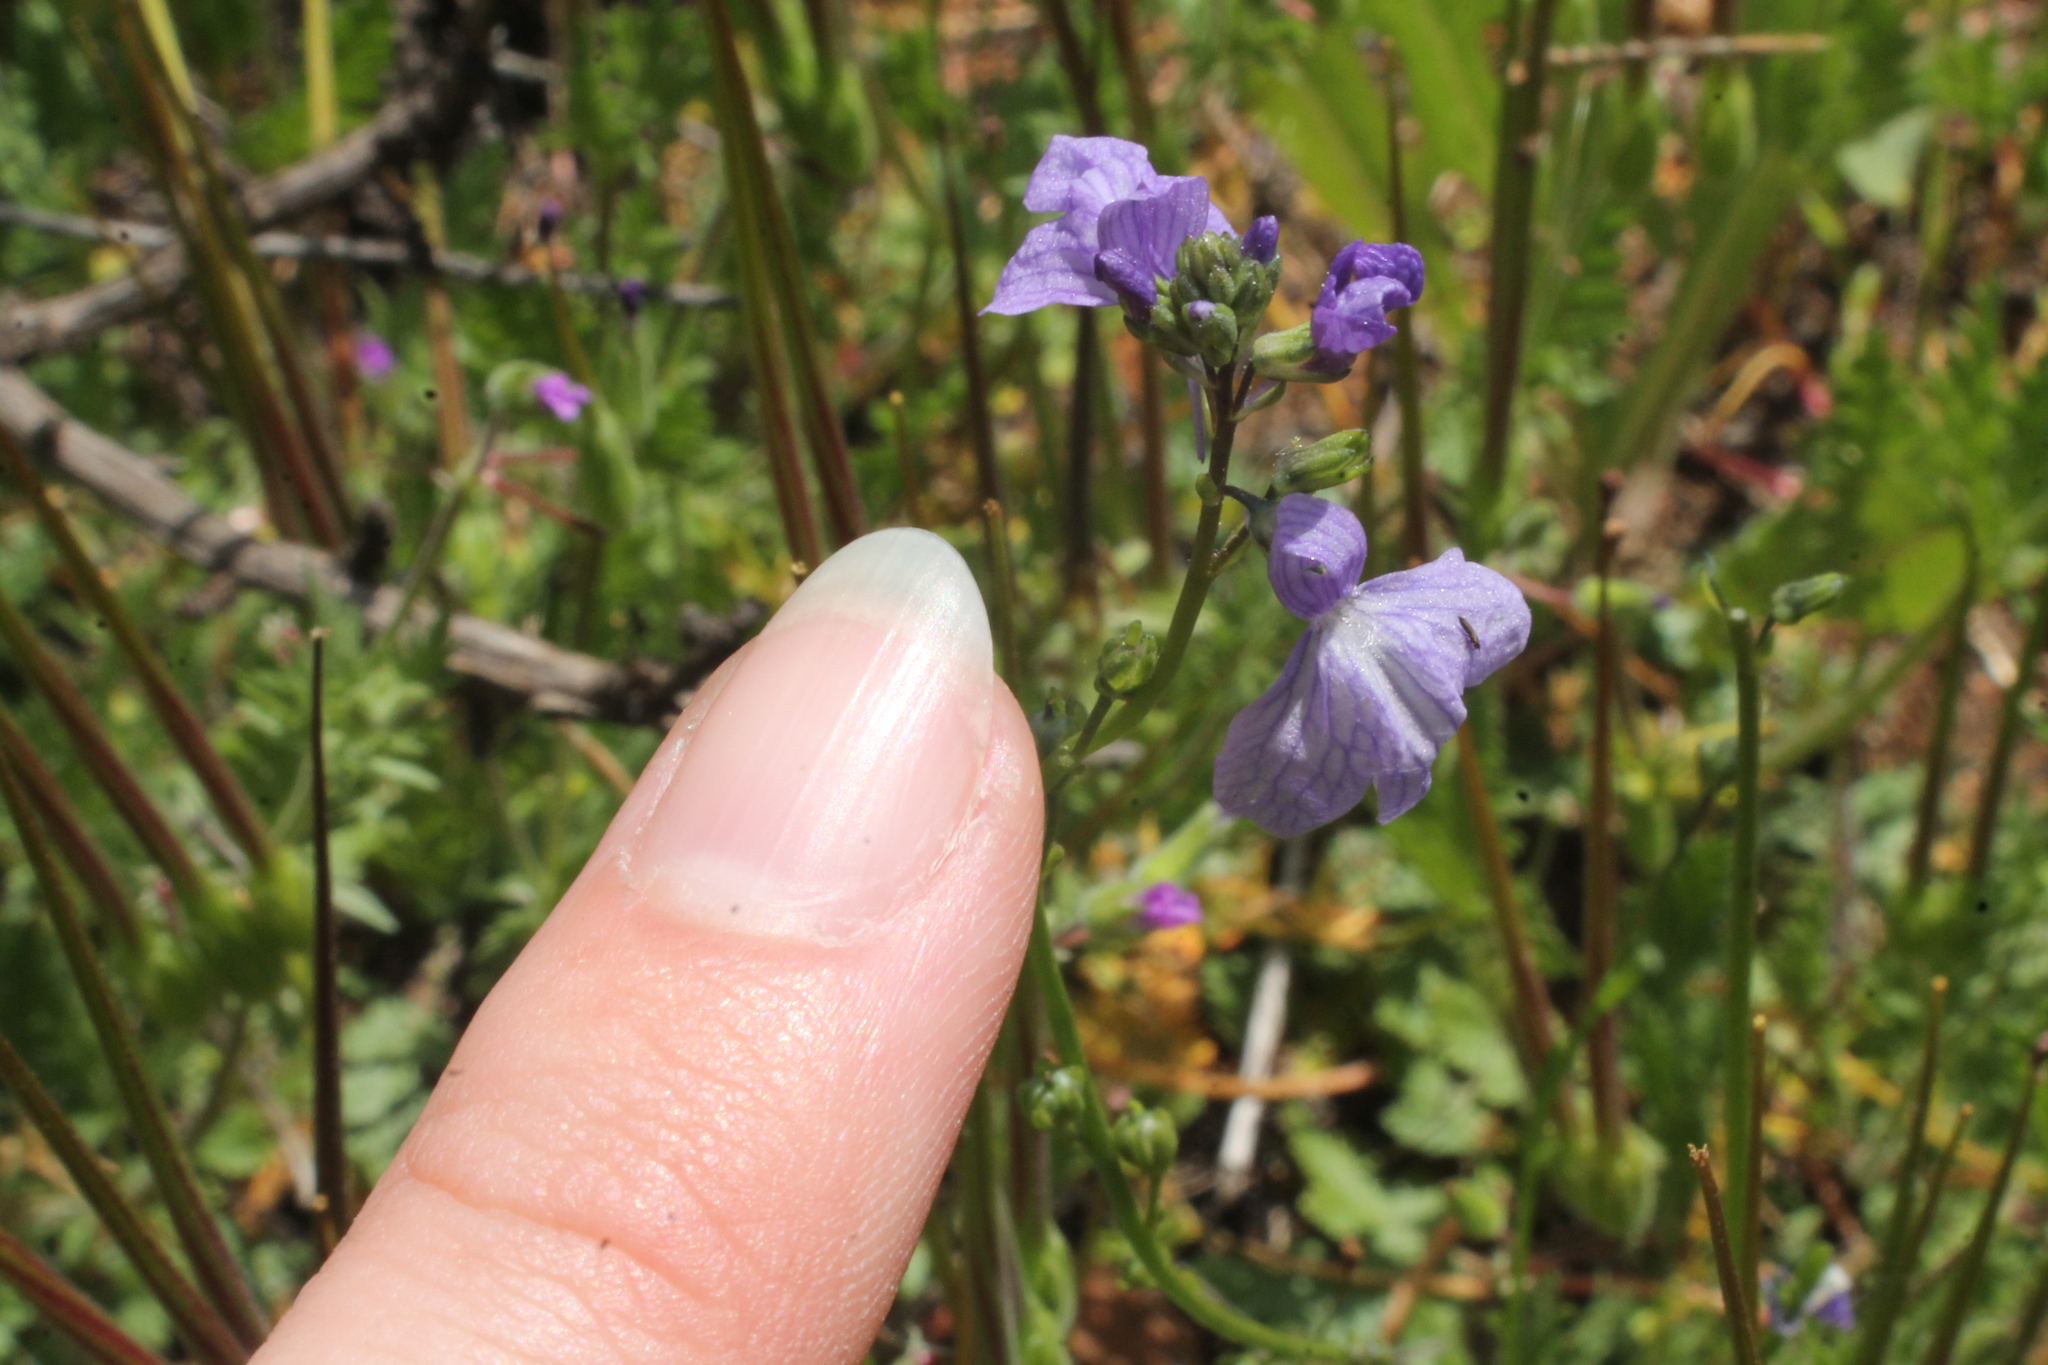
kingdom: Plantae
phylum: Tracheophyta
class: Magnoliopsida
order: Lamiales
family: Plantaginaceae
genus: Nuttallanthus
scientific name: Nuttallanthus texanus
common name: Texas toadflax
